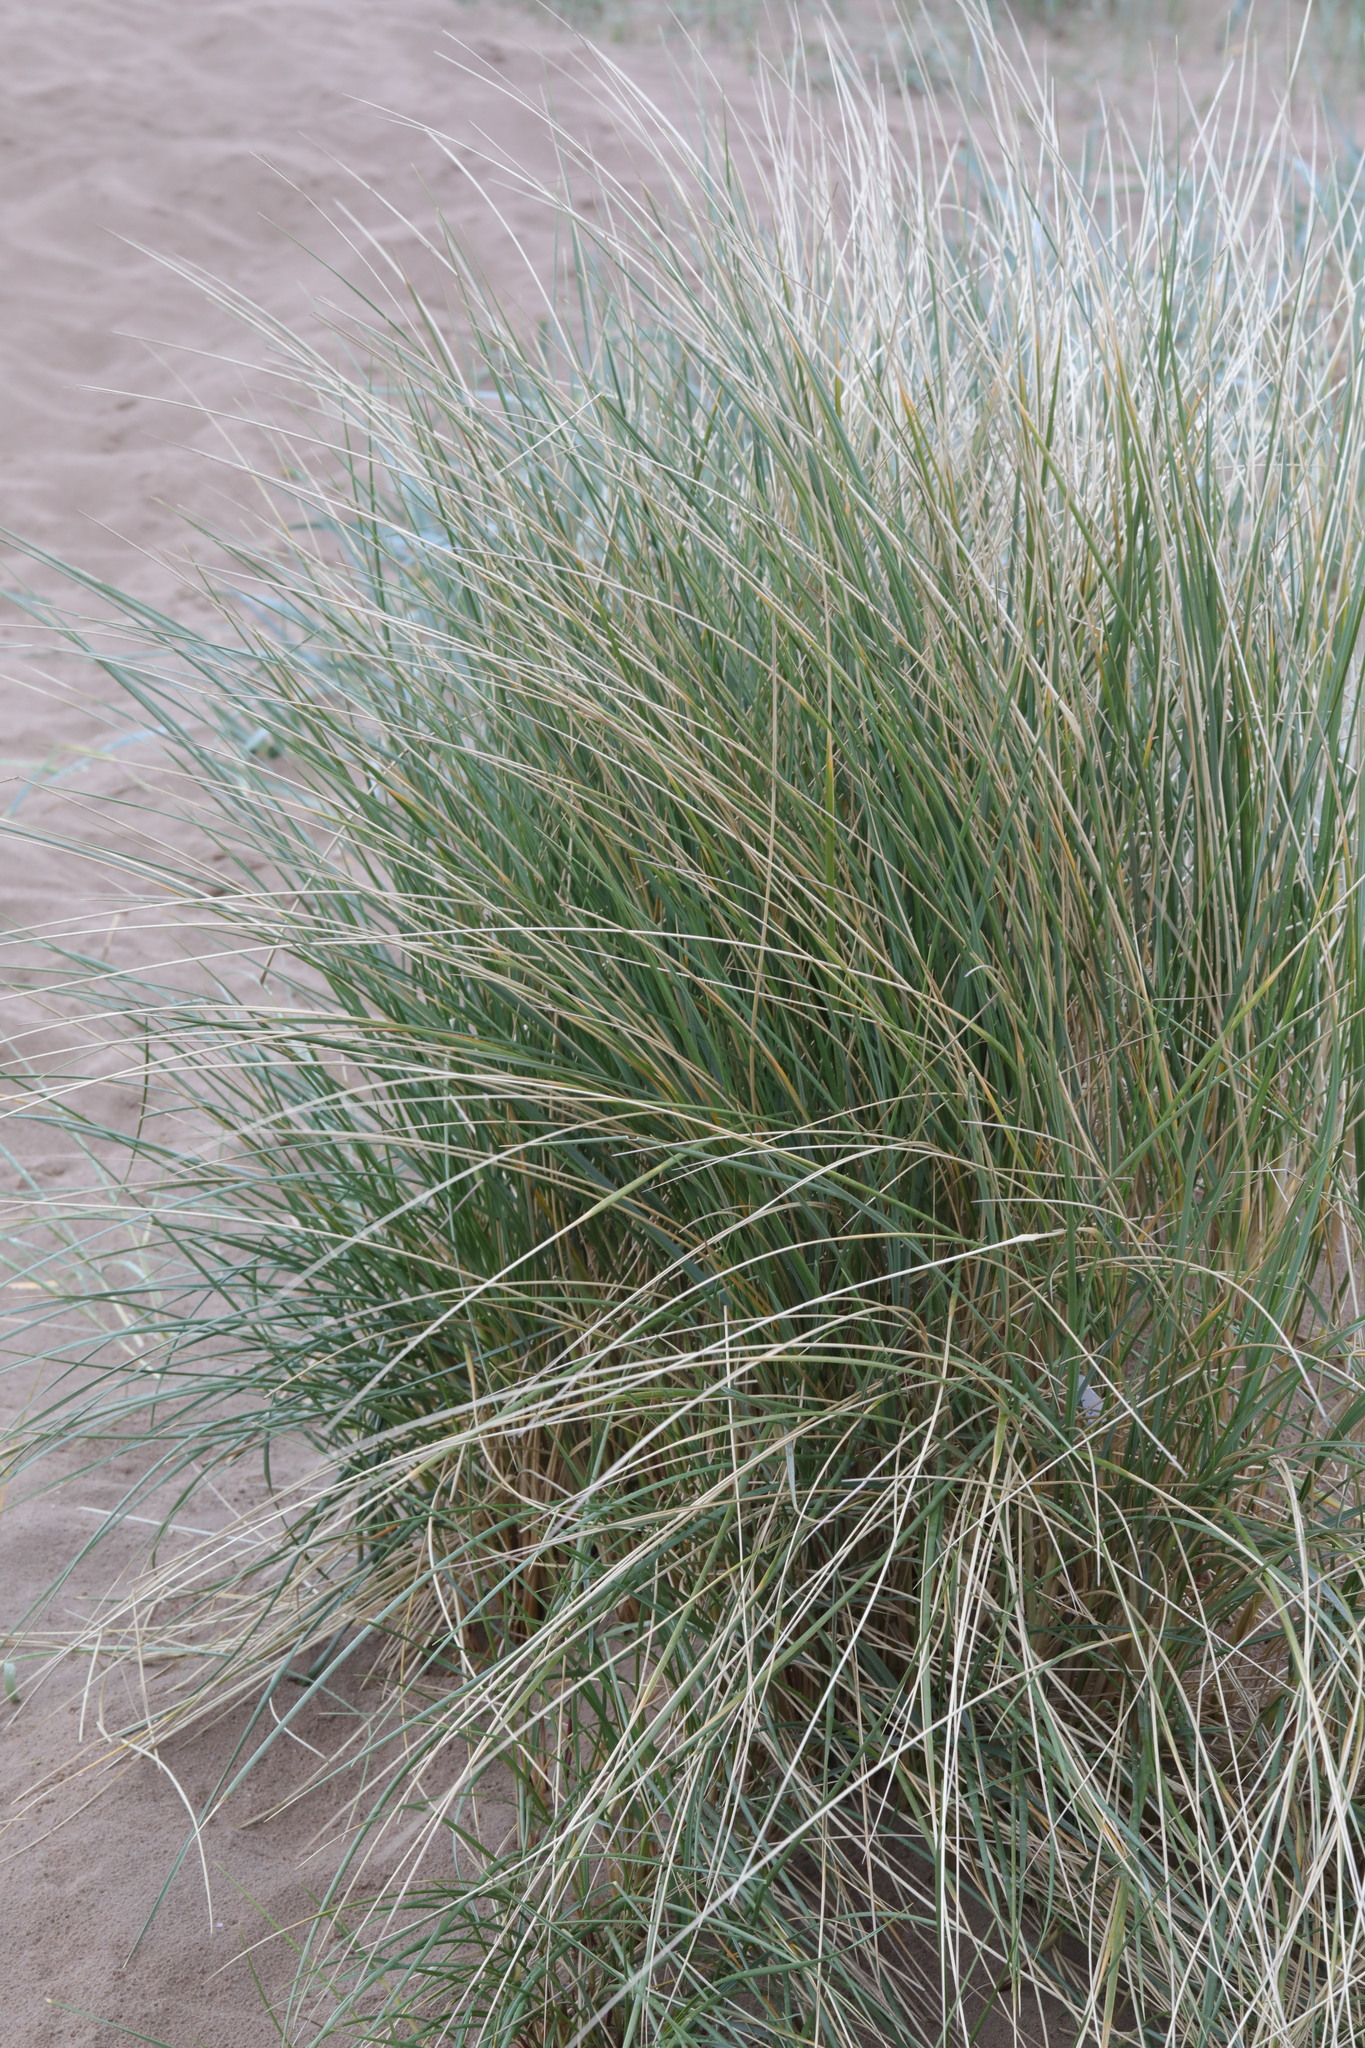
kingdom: Plantae
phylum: Tracheophyta
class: Liliopsida
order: Poales
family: Poaceae
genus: Calamagrostis
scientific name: Calamagrostis arenaria
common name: European beachgrass
